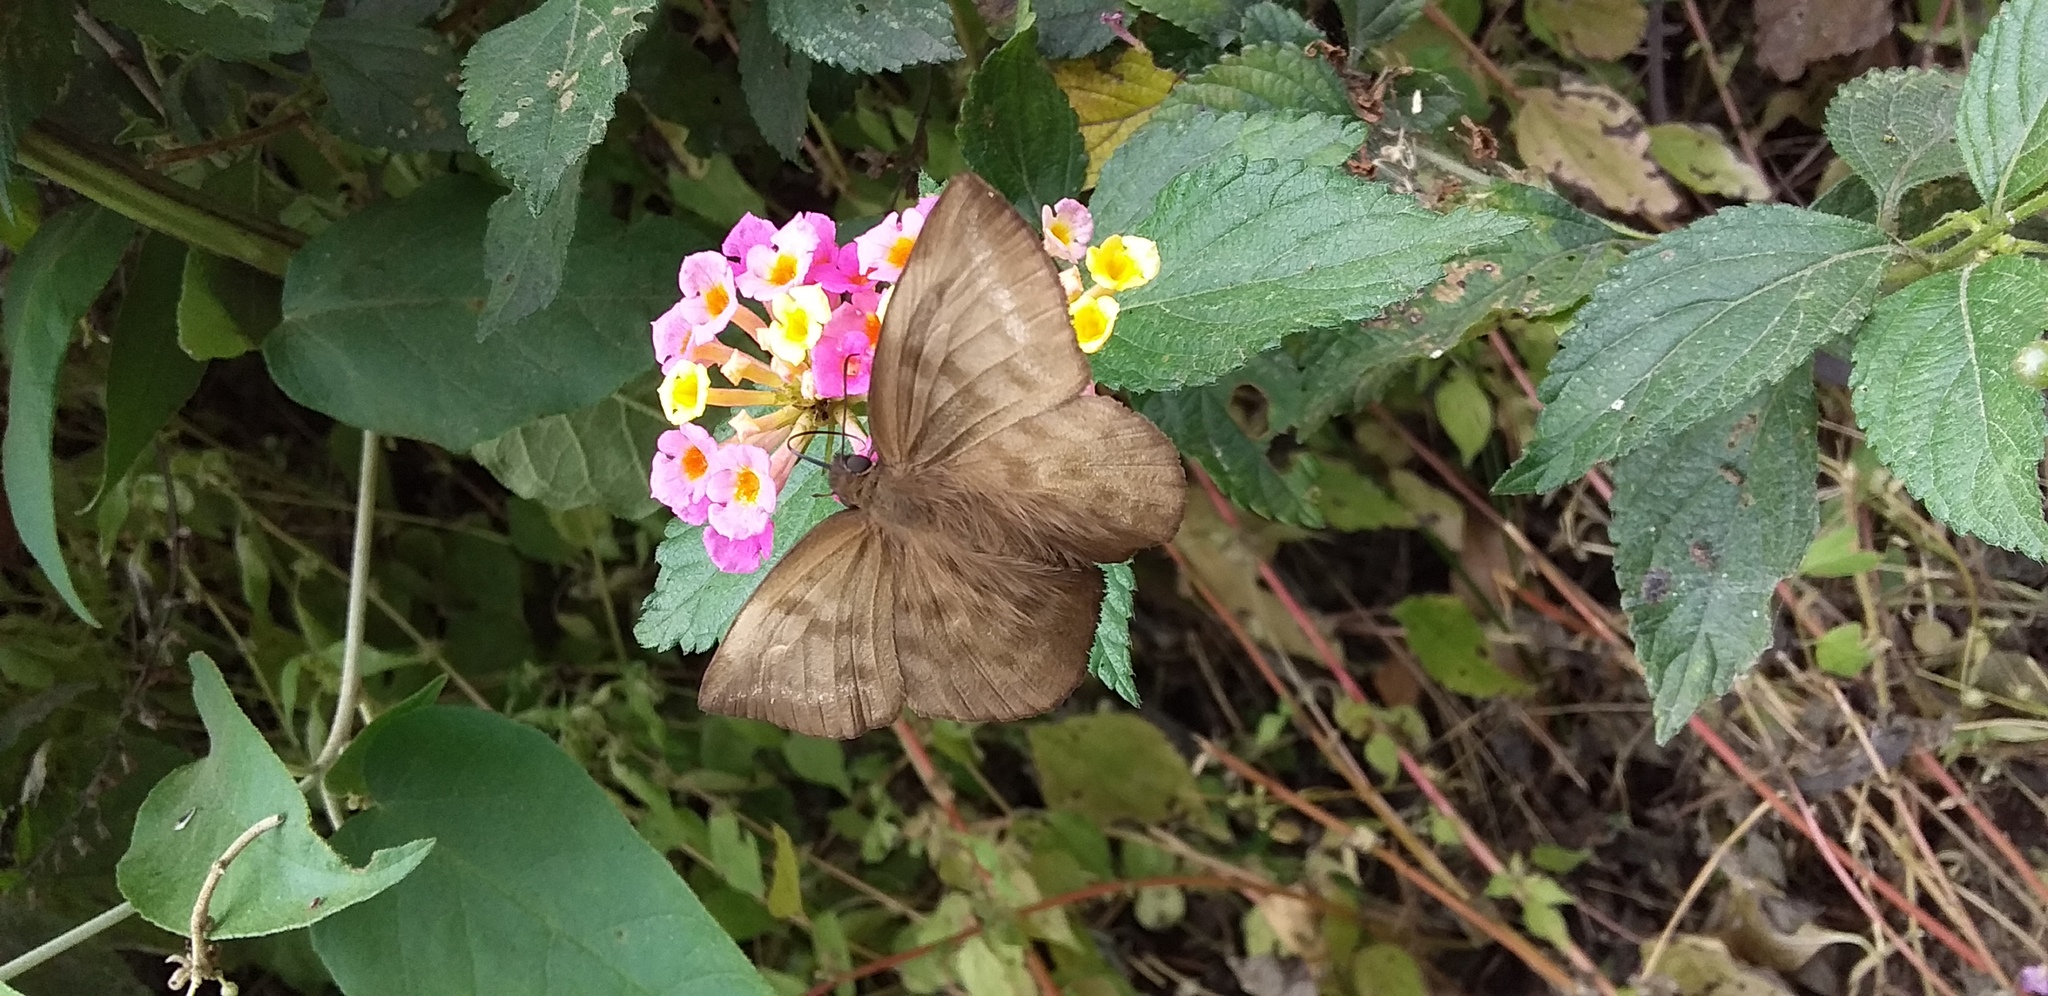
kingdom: Animalia
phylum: Arthropoda
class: Insecta
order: Lepidoptera
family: Hesperiidae
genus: Achlyodes
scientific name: Achlyodes pallida
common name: Pale sicklewing
